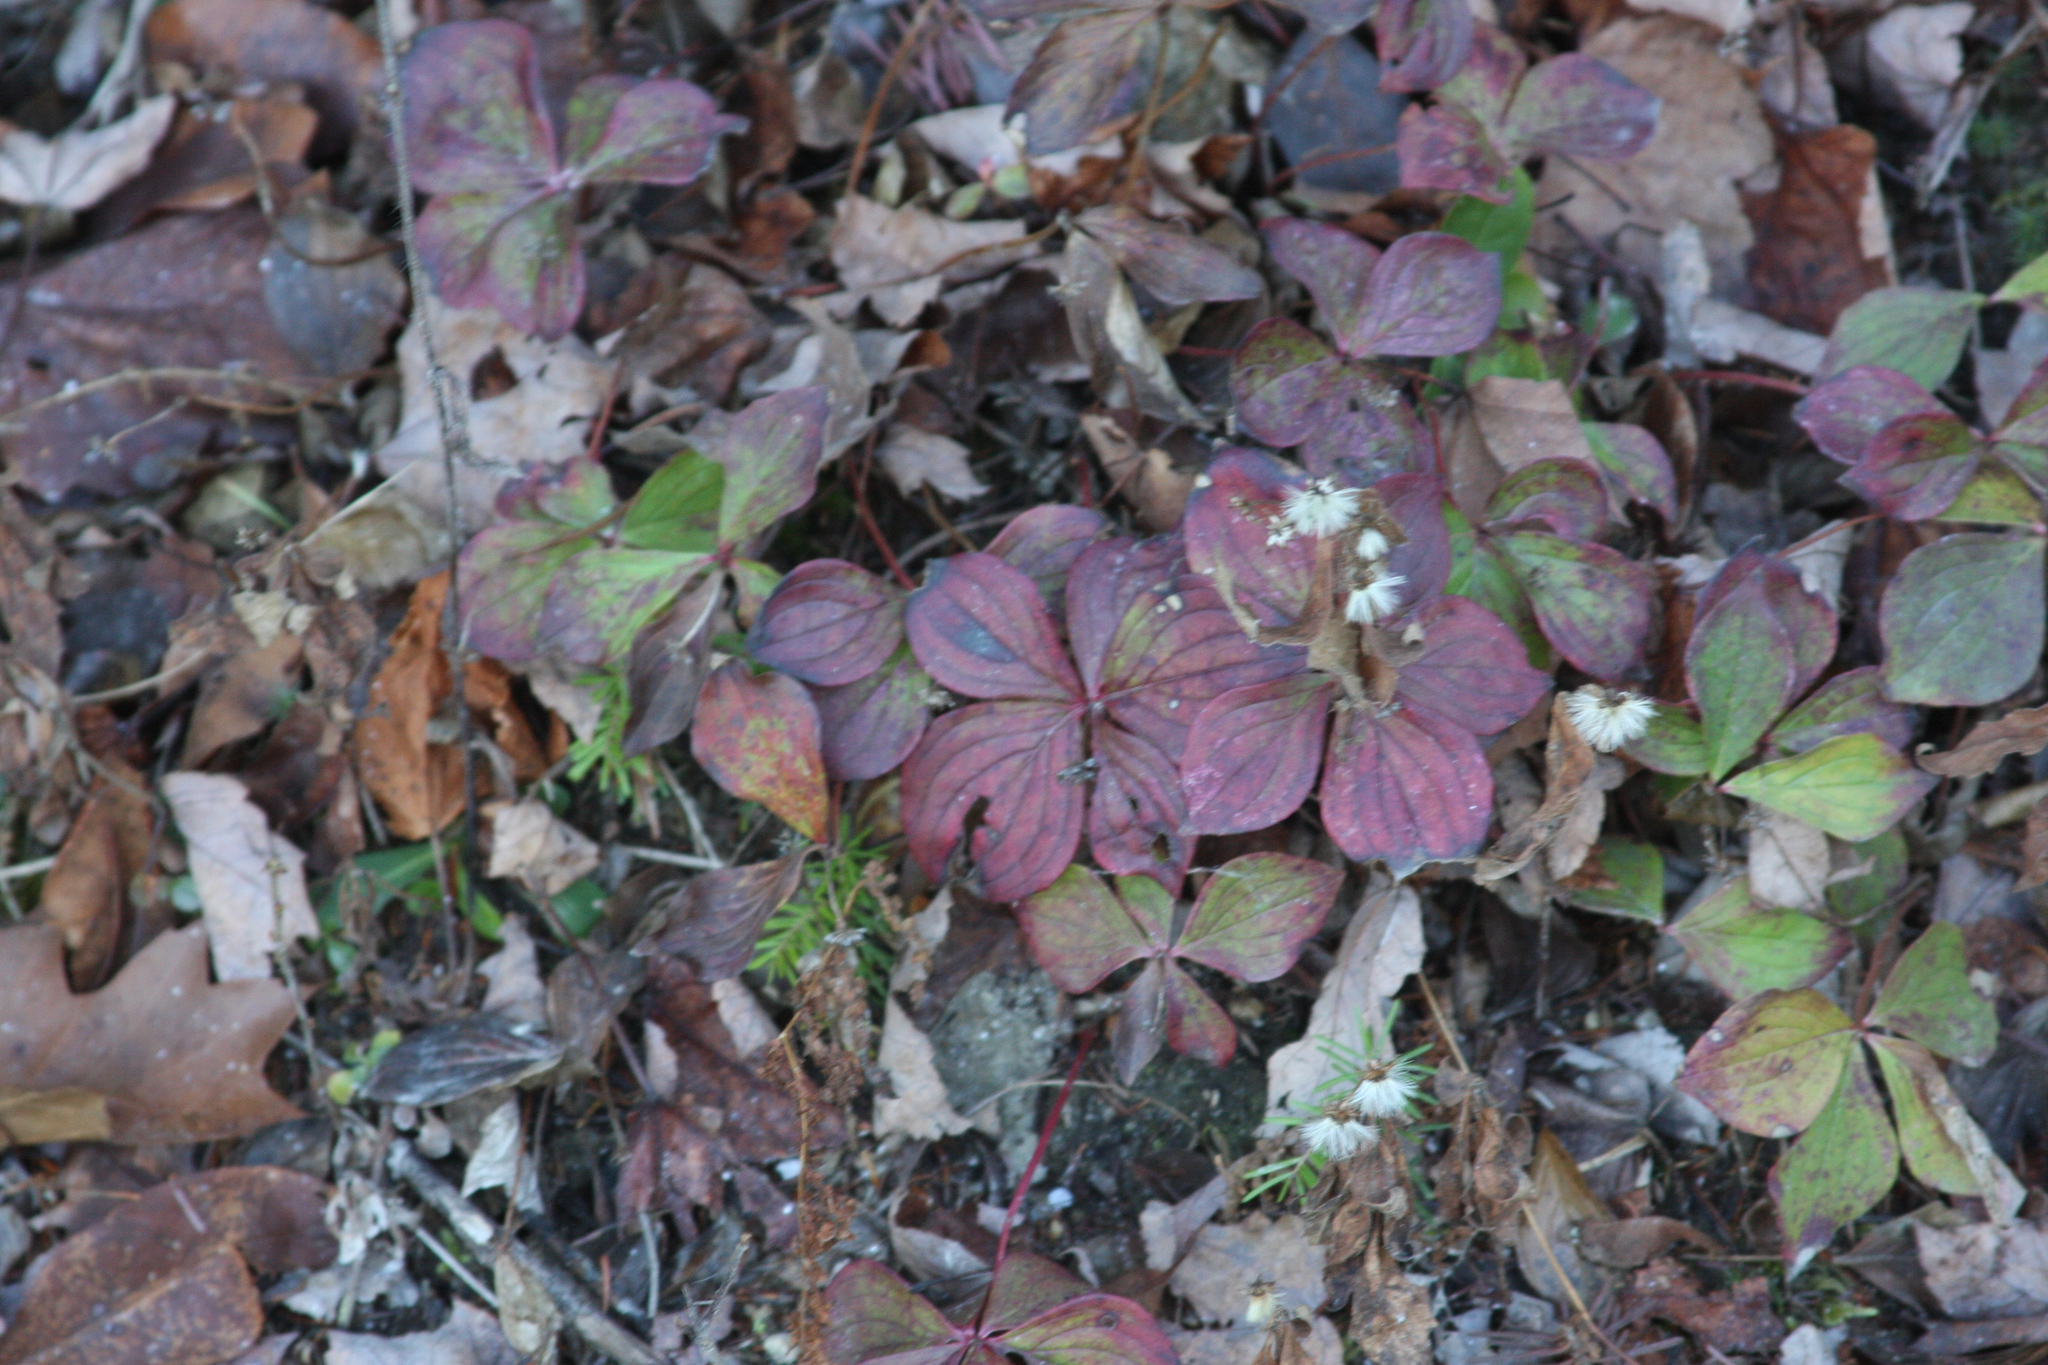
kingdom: Plantae
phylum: Tracheophyta
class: Magnoliopsida
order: Cornales
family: Cornaceae
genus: Cornus
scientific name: Cornus canadensis
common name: Creeping dogwood
